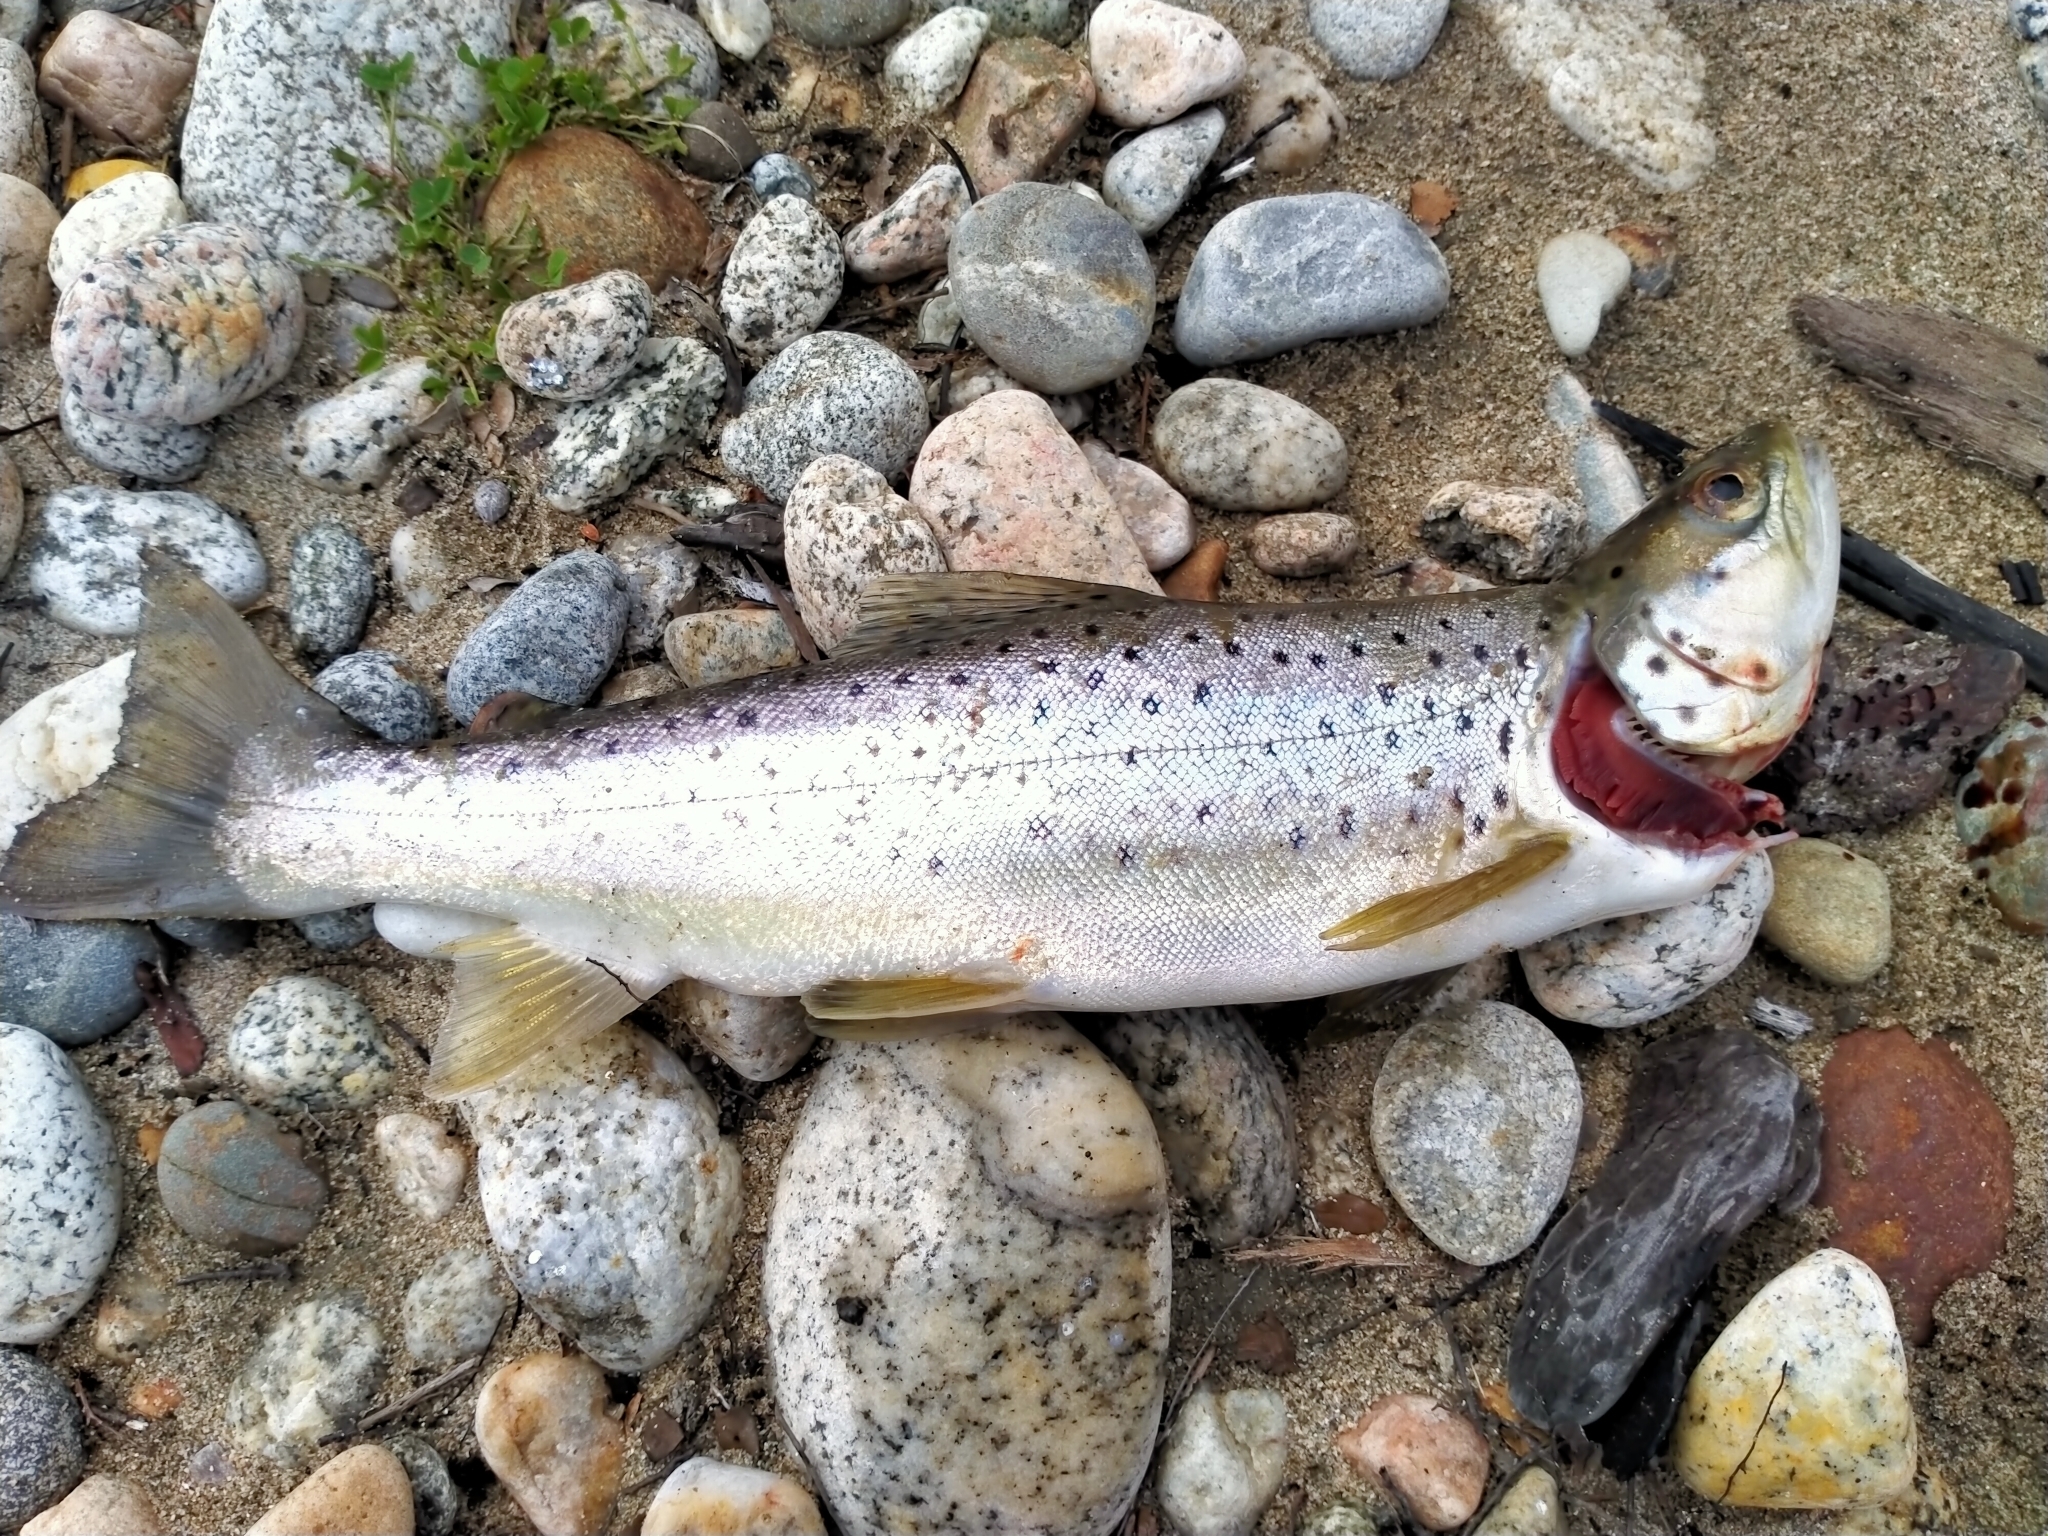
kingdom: Animalia
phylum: Chordata
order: Salmoniformes
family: Salmonidae
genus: Salmo
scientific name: Salmo trutta
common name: Brown trout
